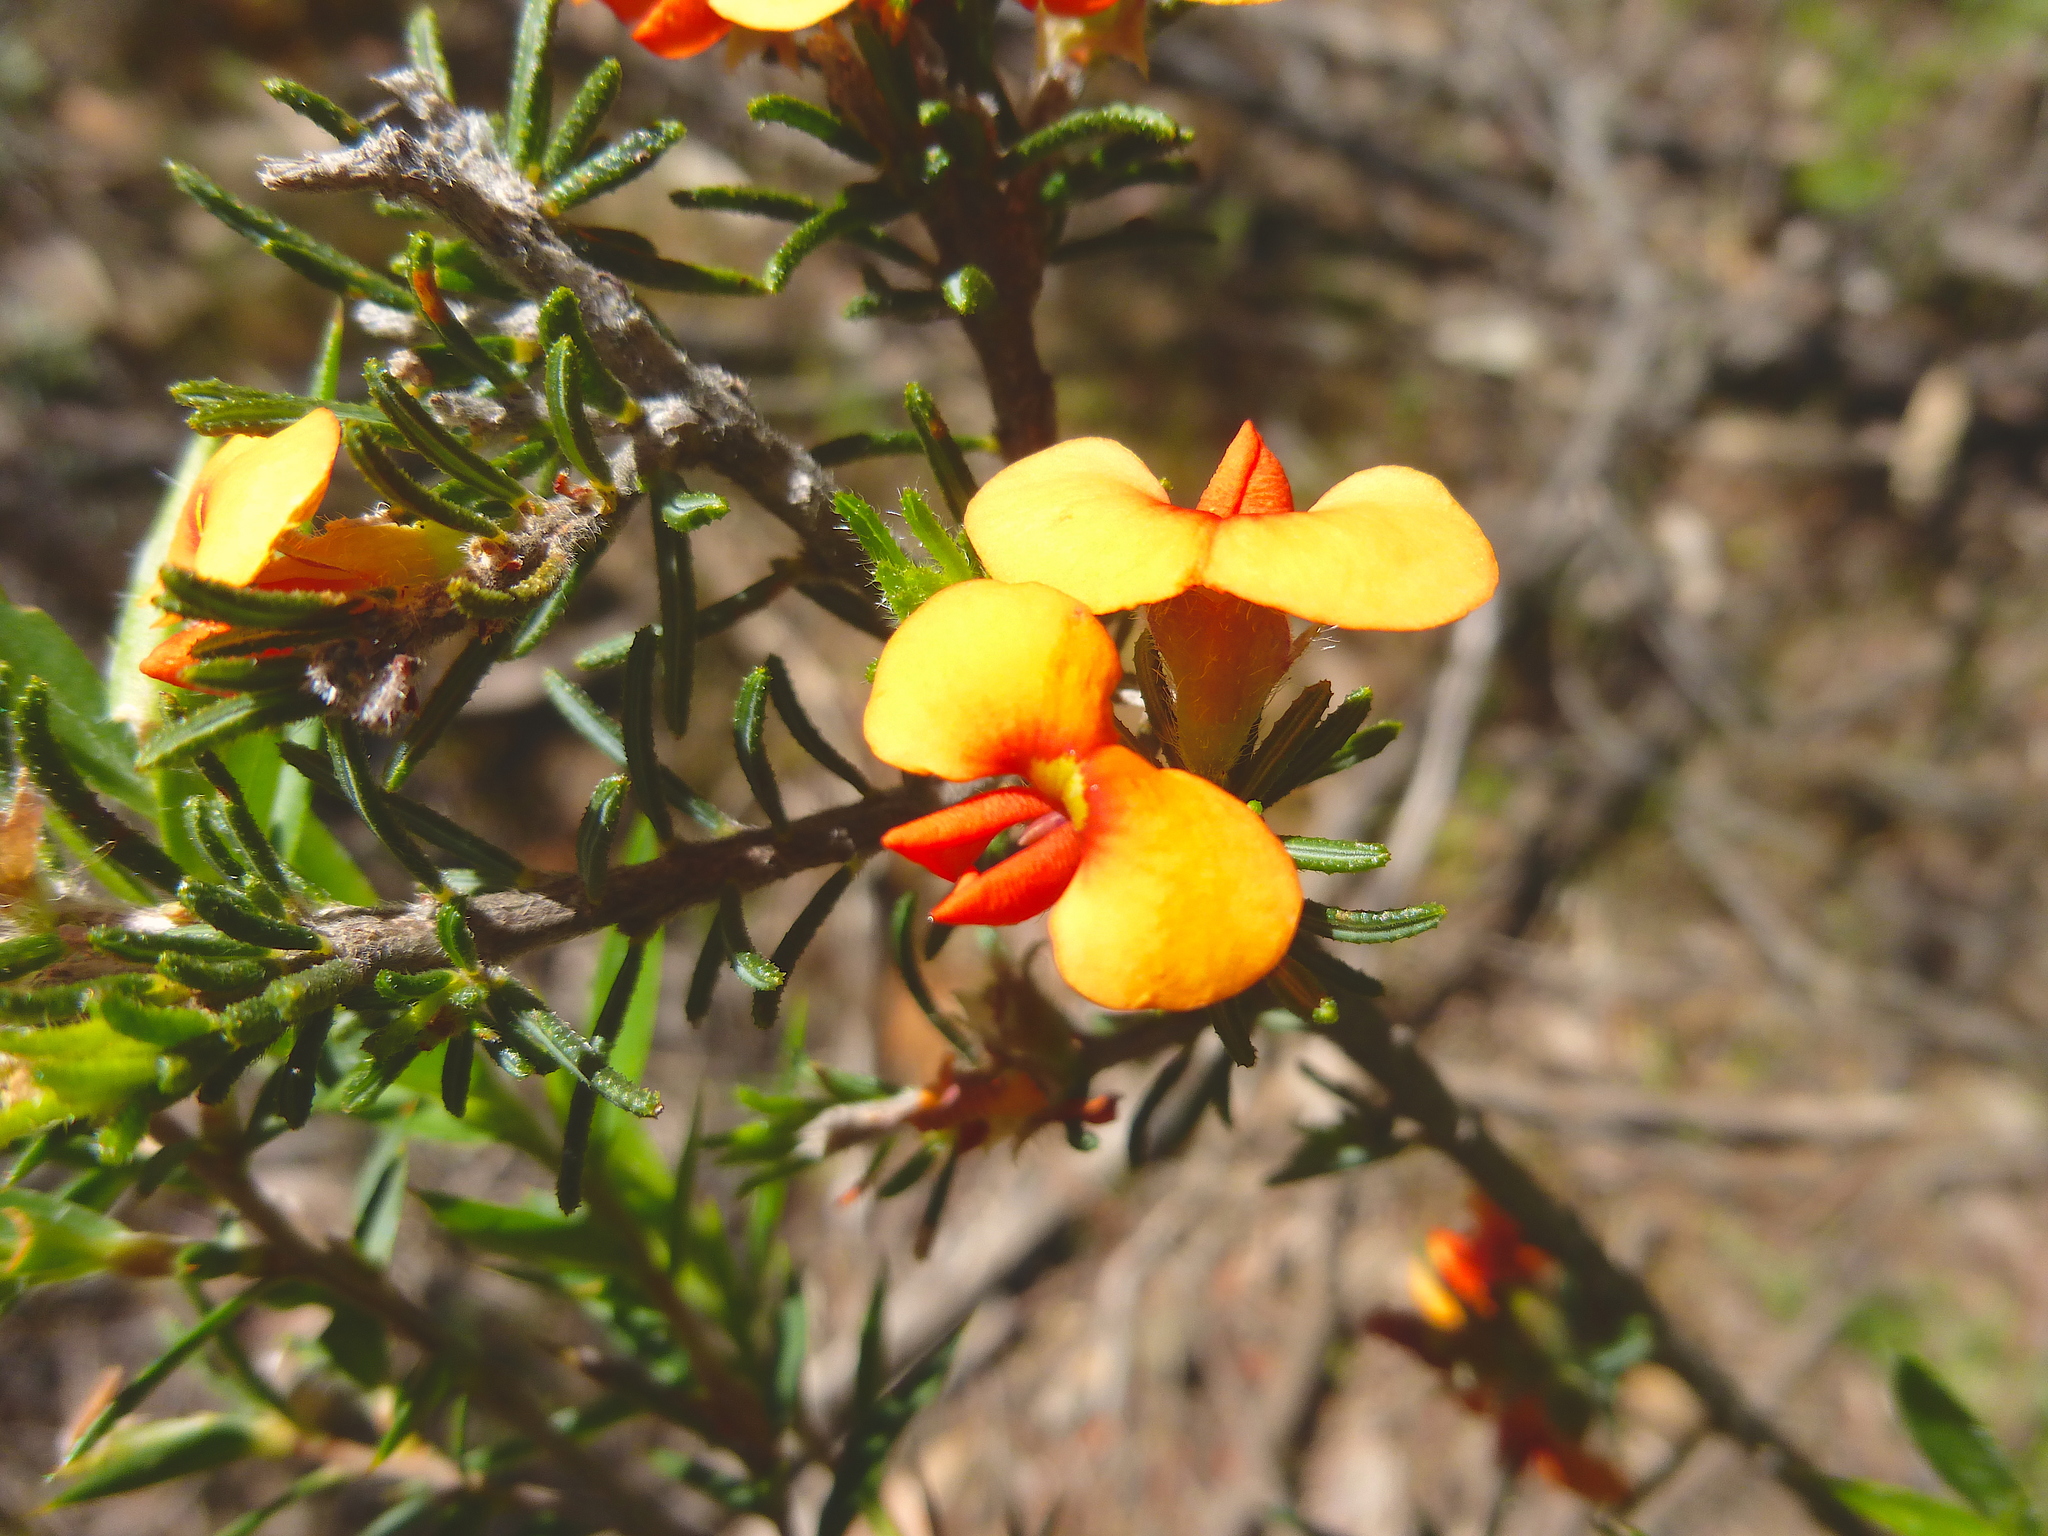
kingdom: Plantae
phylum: Tracheophyta
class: Magnoliopsida
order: Fabales
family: Fabaceae
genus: Dillwynia
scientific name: Dillwynia sericea
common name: Showy parrot-pea
